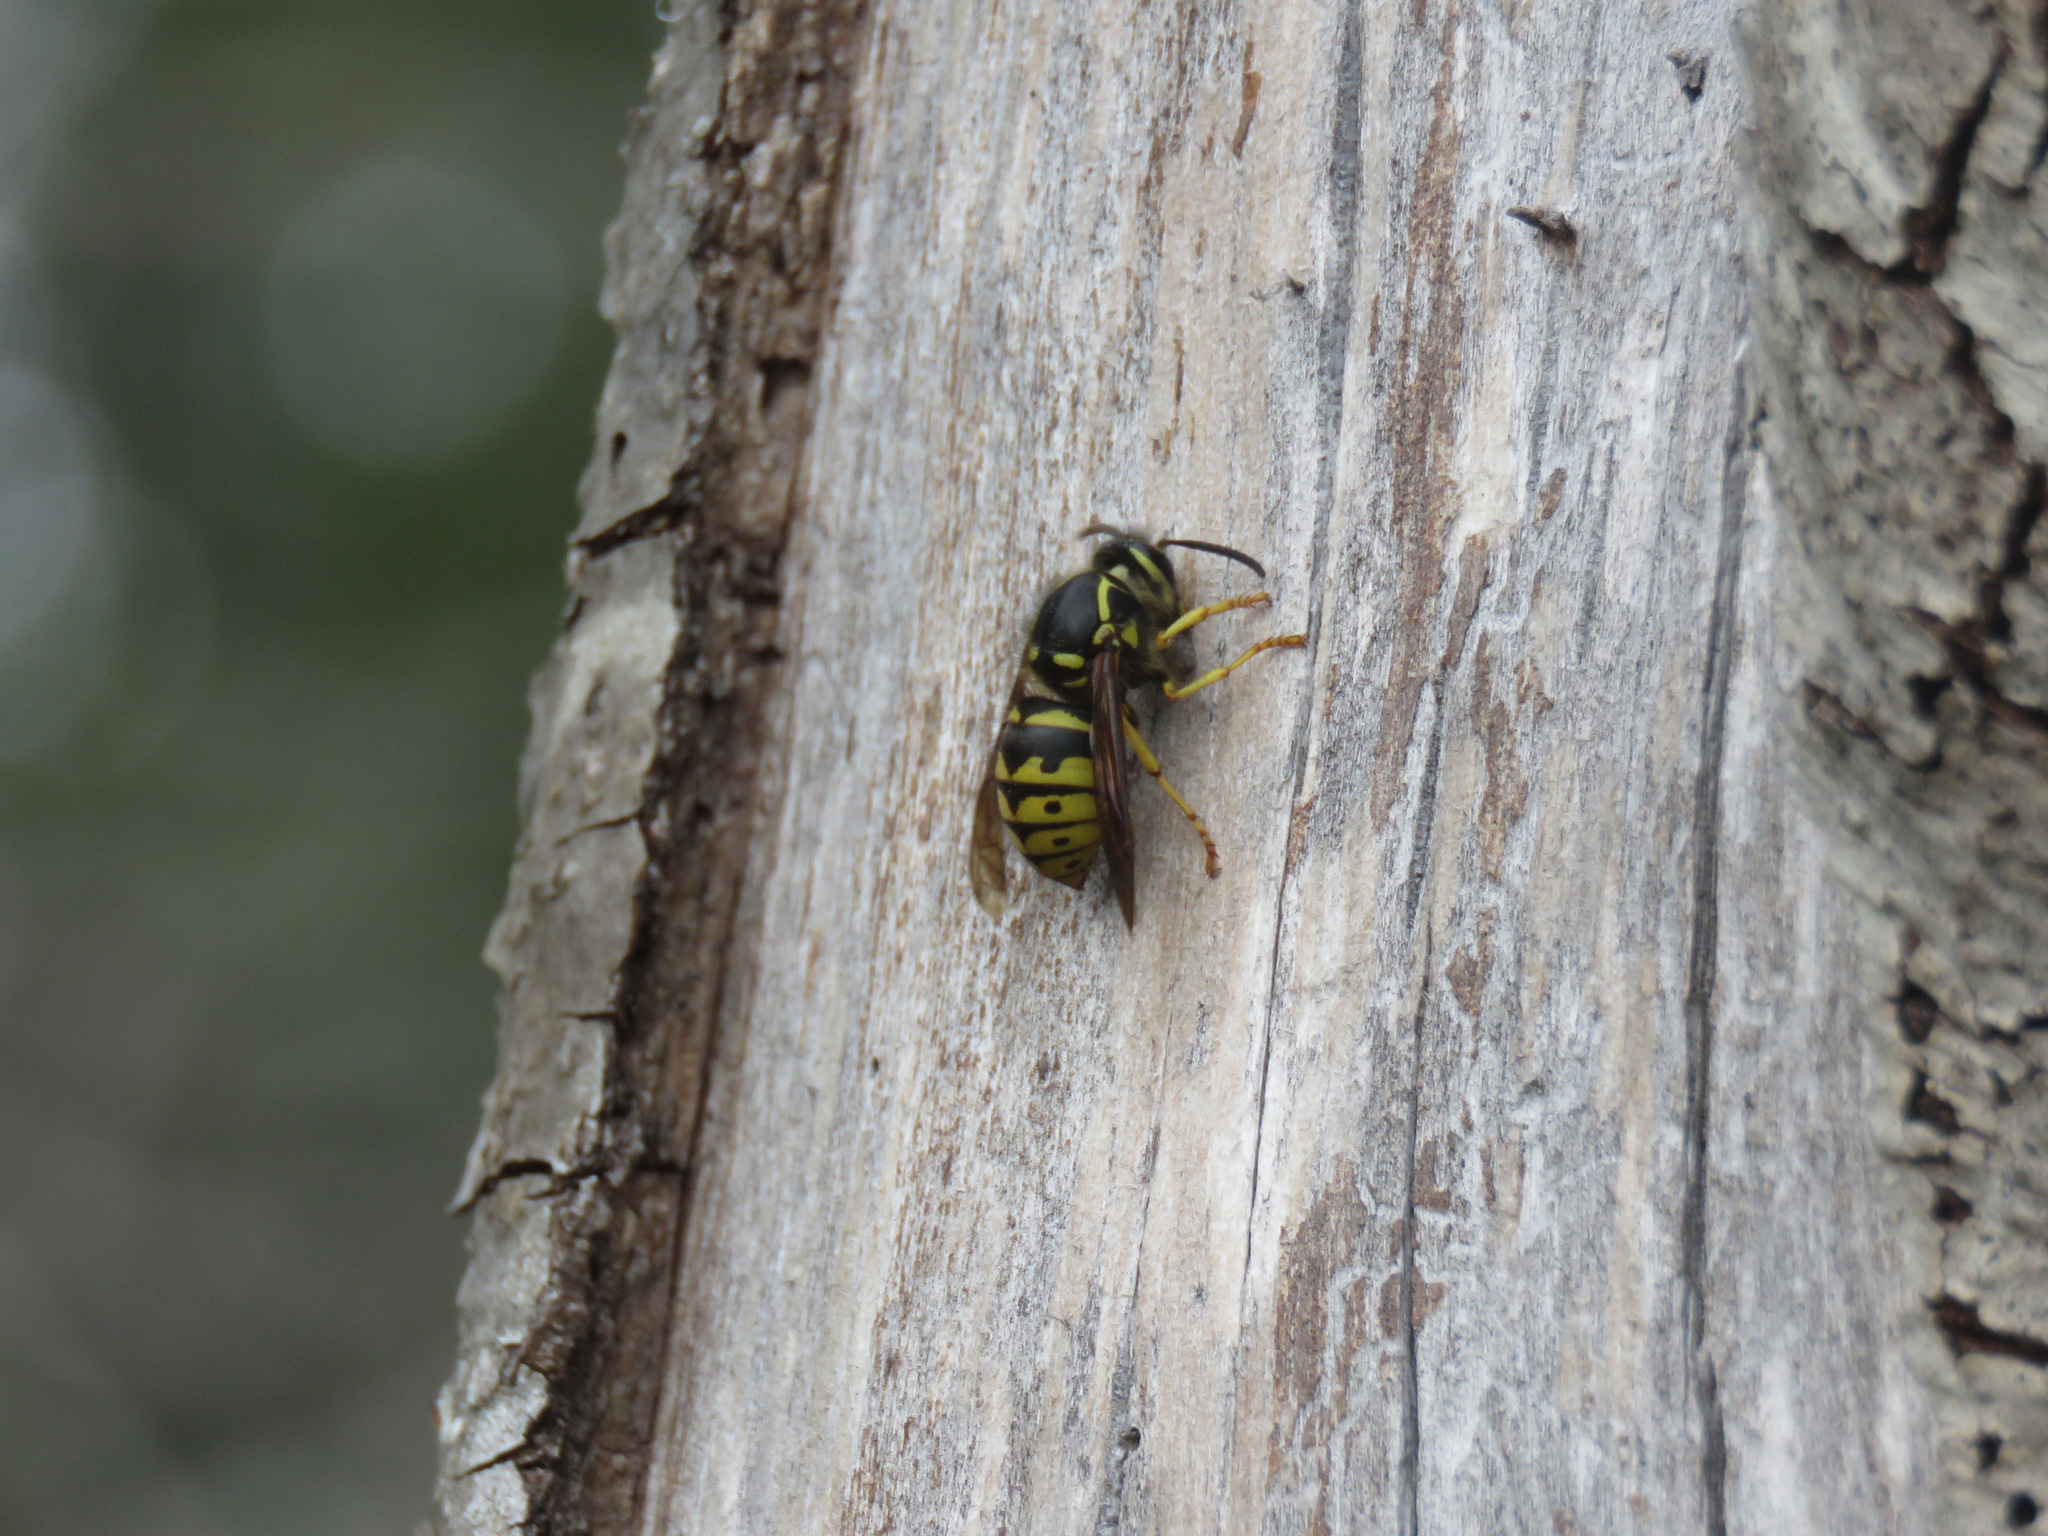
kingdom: Animalia
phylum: Arthropoda
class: Insecta
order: Hymenoptera
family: Vespidae
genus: Dolichovespula
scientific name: Dolichovespula arenaria
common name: Aerial yellowjacket
